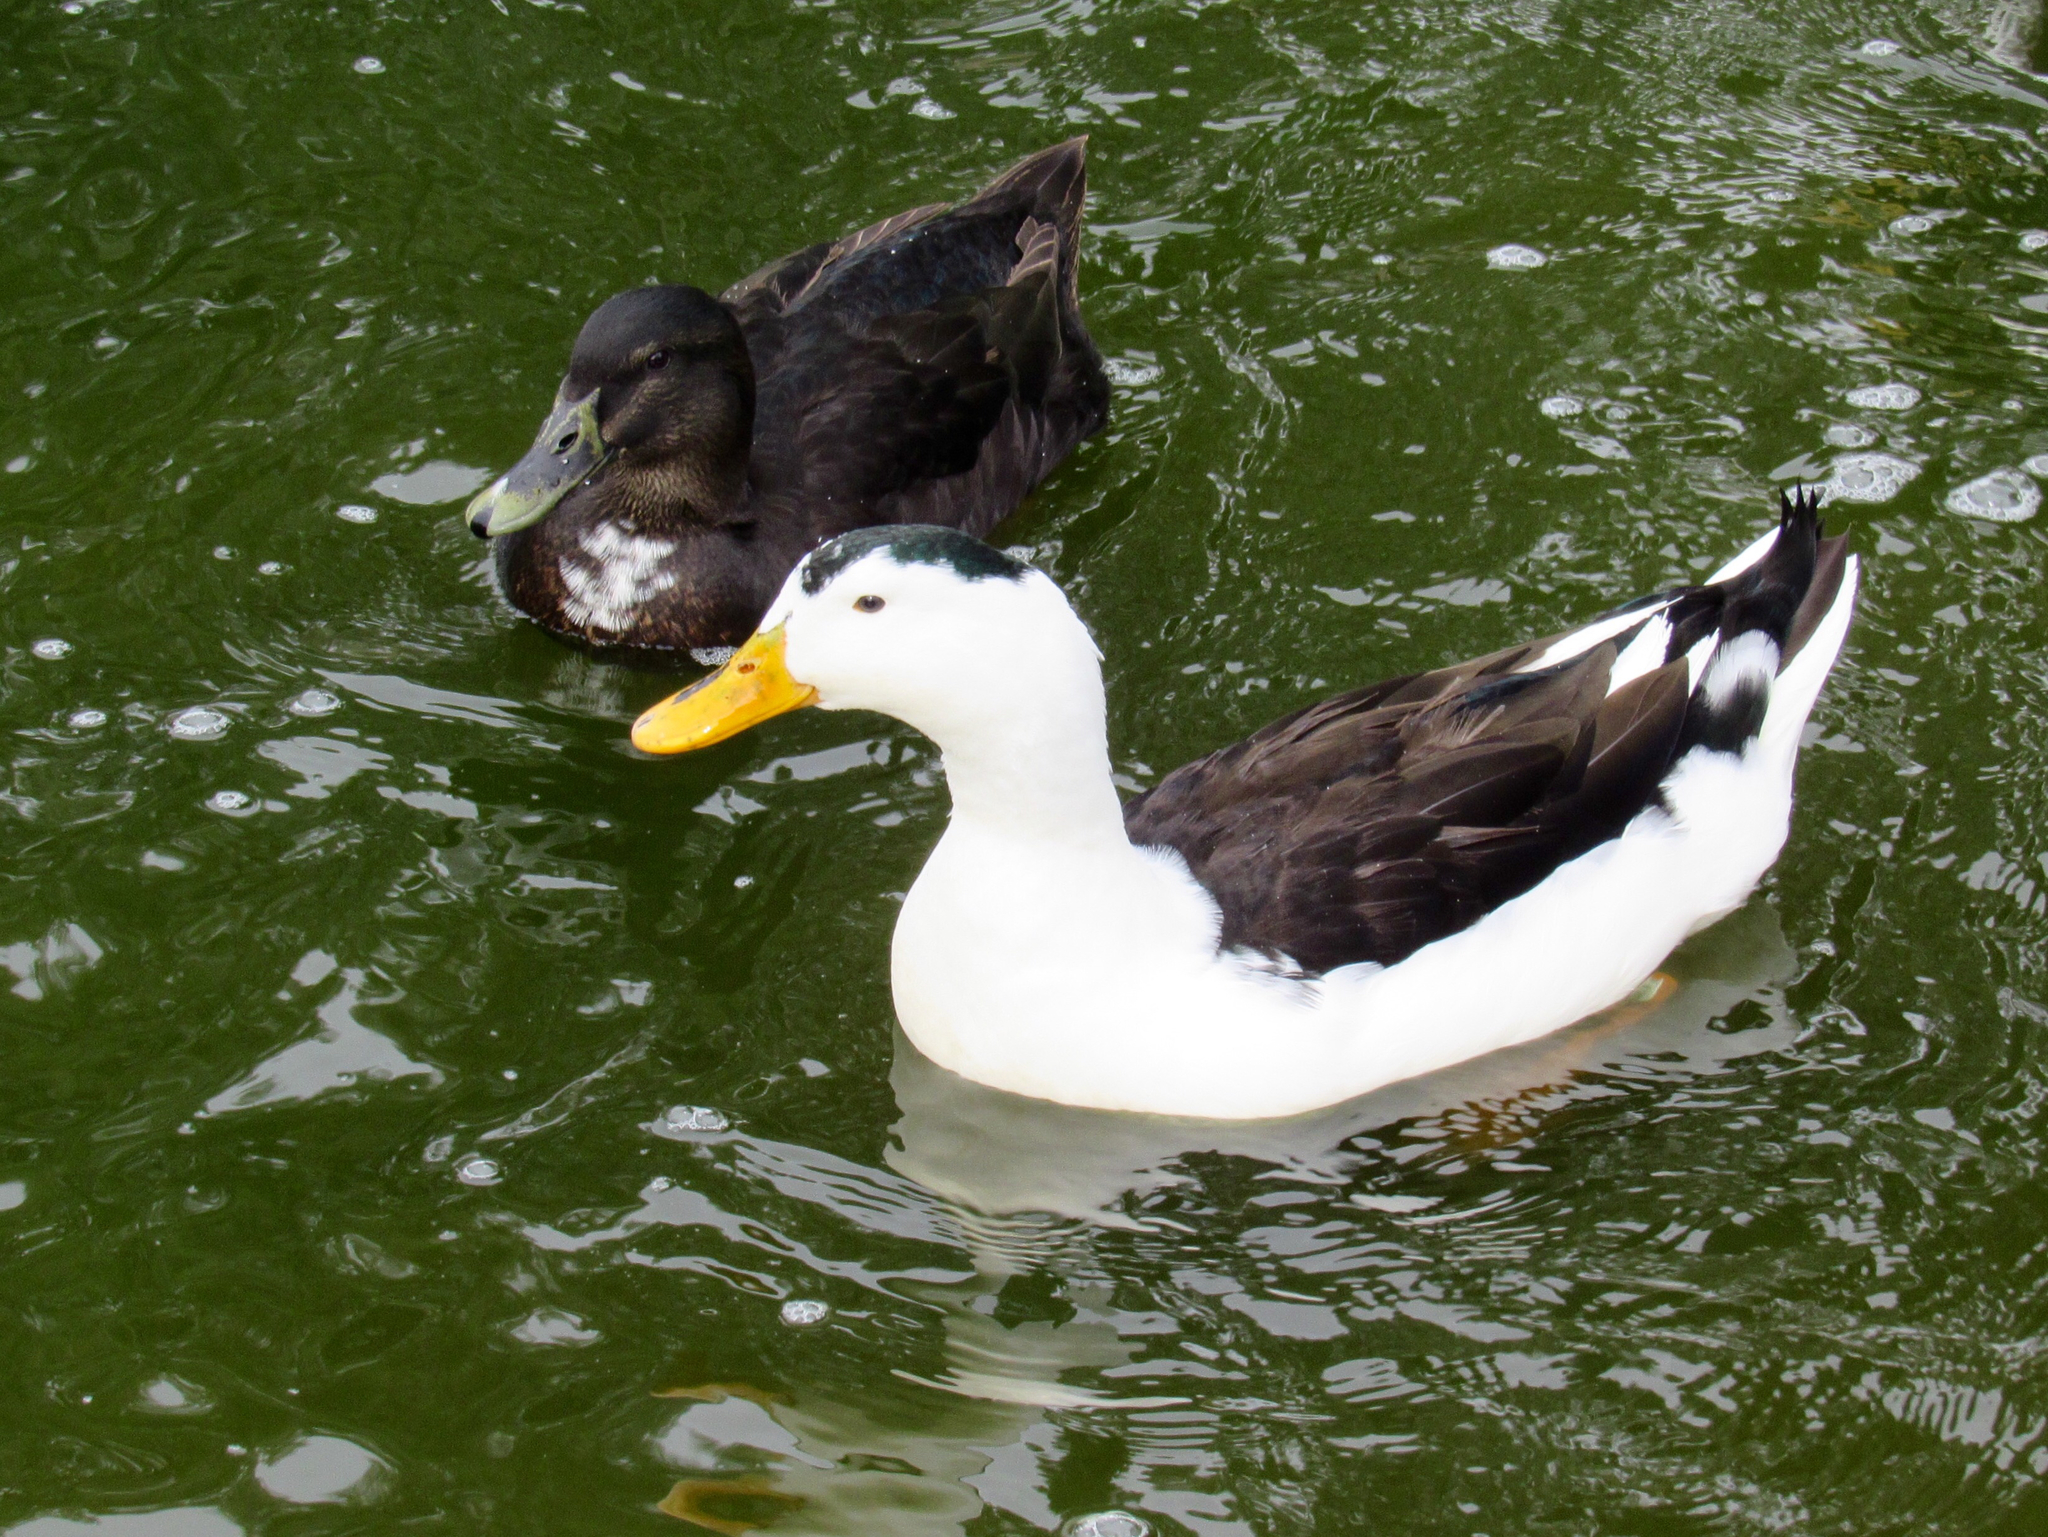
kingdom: Animalia
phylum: Chordata
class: Aves
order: Anseriformes
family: Anatidae
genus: Anas
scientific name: Anas platyrhynchos
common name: Mallard
